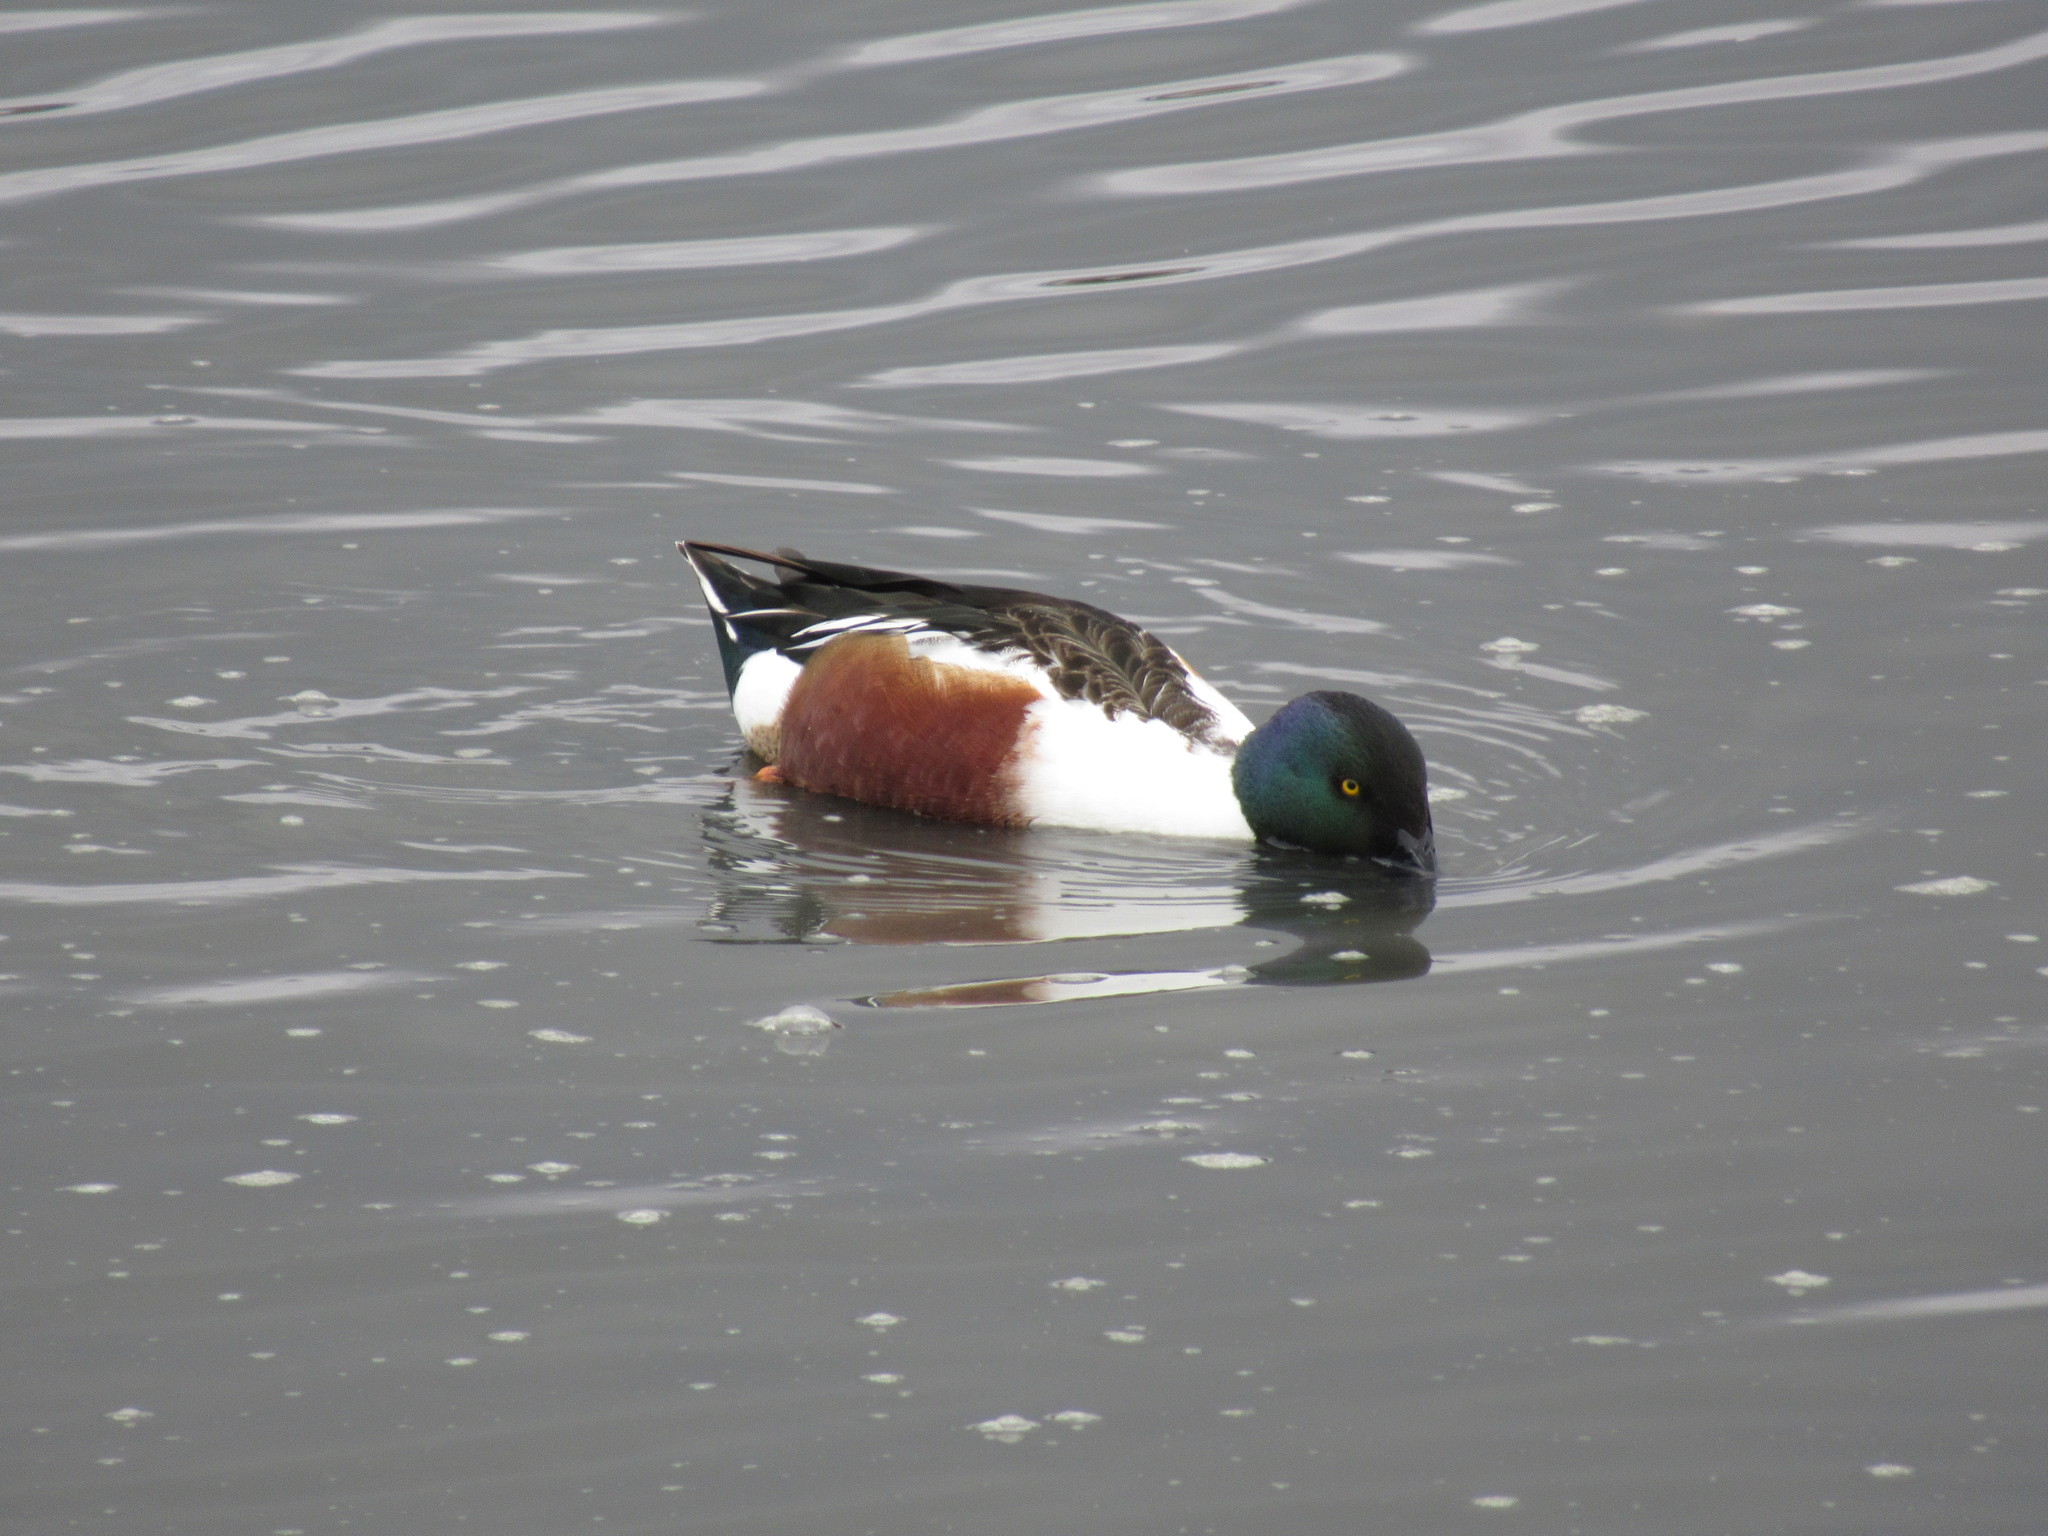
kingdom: Animalia
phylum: Chordata
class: Aves
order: Anseriformes
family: Anatidae
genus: Spatula
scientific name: Spatula clypeata
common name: Northern shoveler
